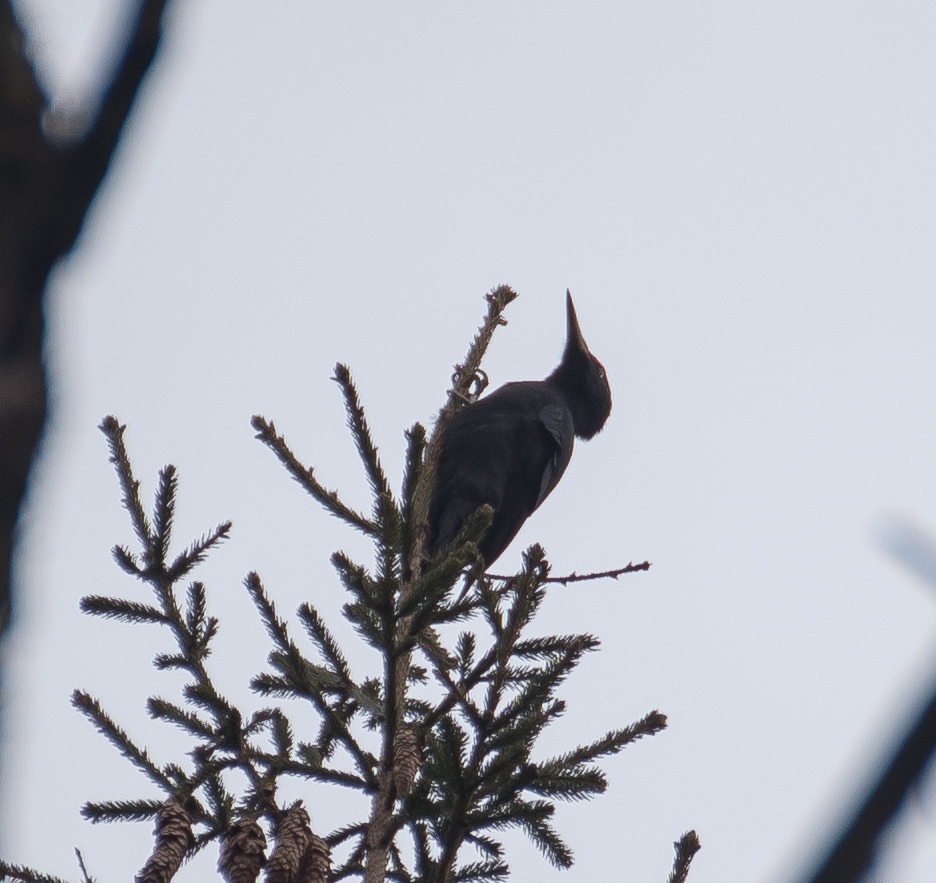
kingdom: Animalia
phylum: Chordata
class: Aves
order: Piciformes
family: Picidae
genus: Dryocopus
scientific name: Dryocopus martius
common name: Black woodpecker
